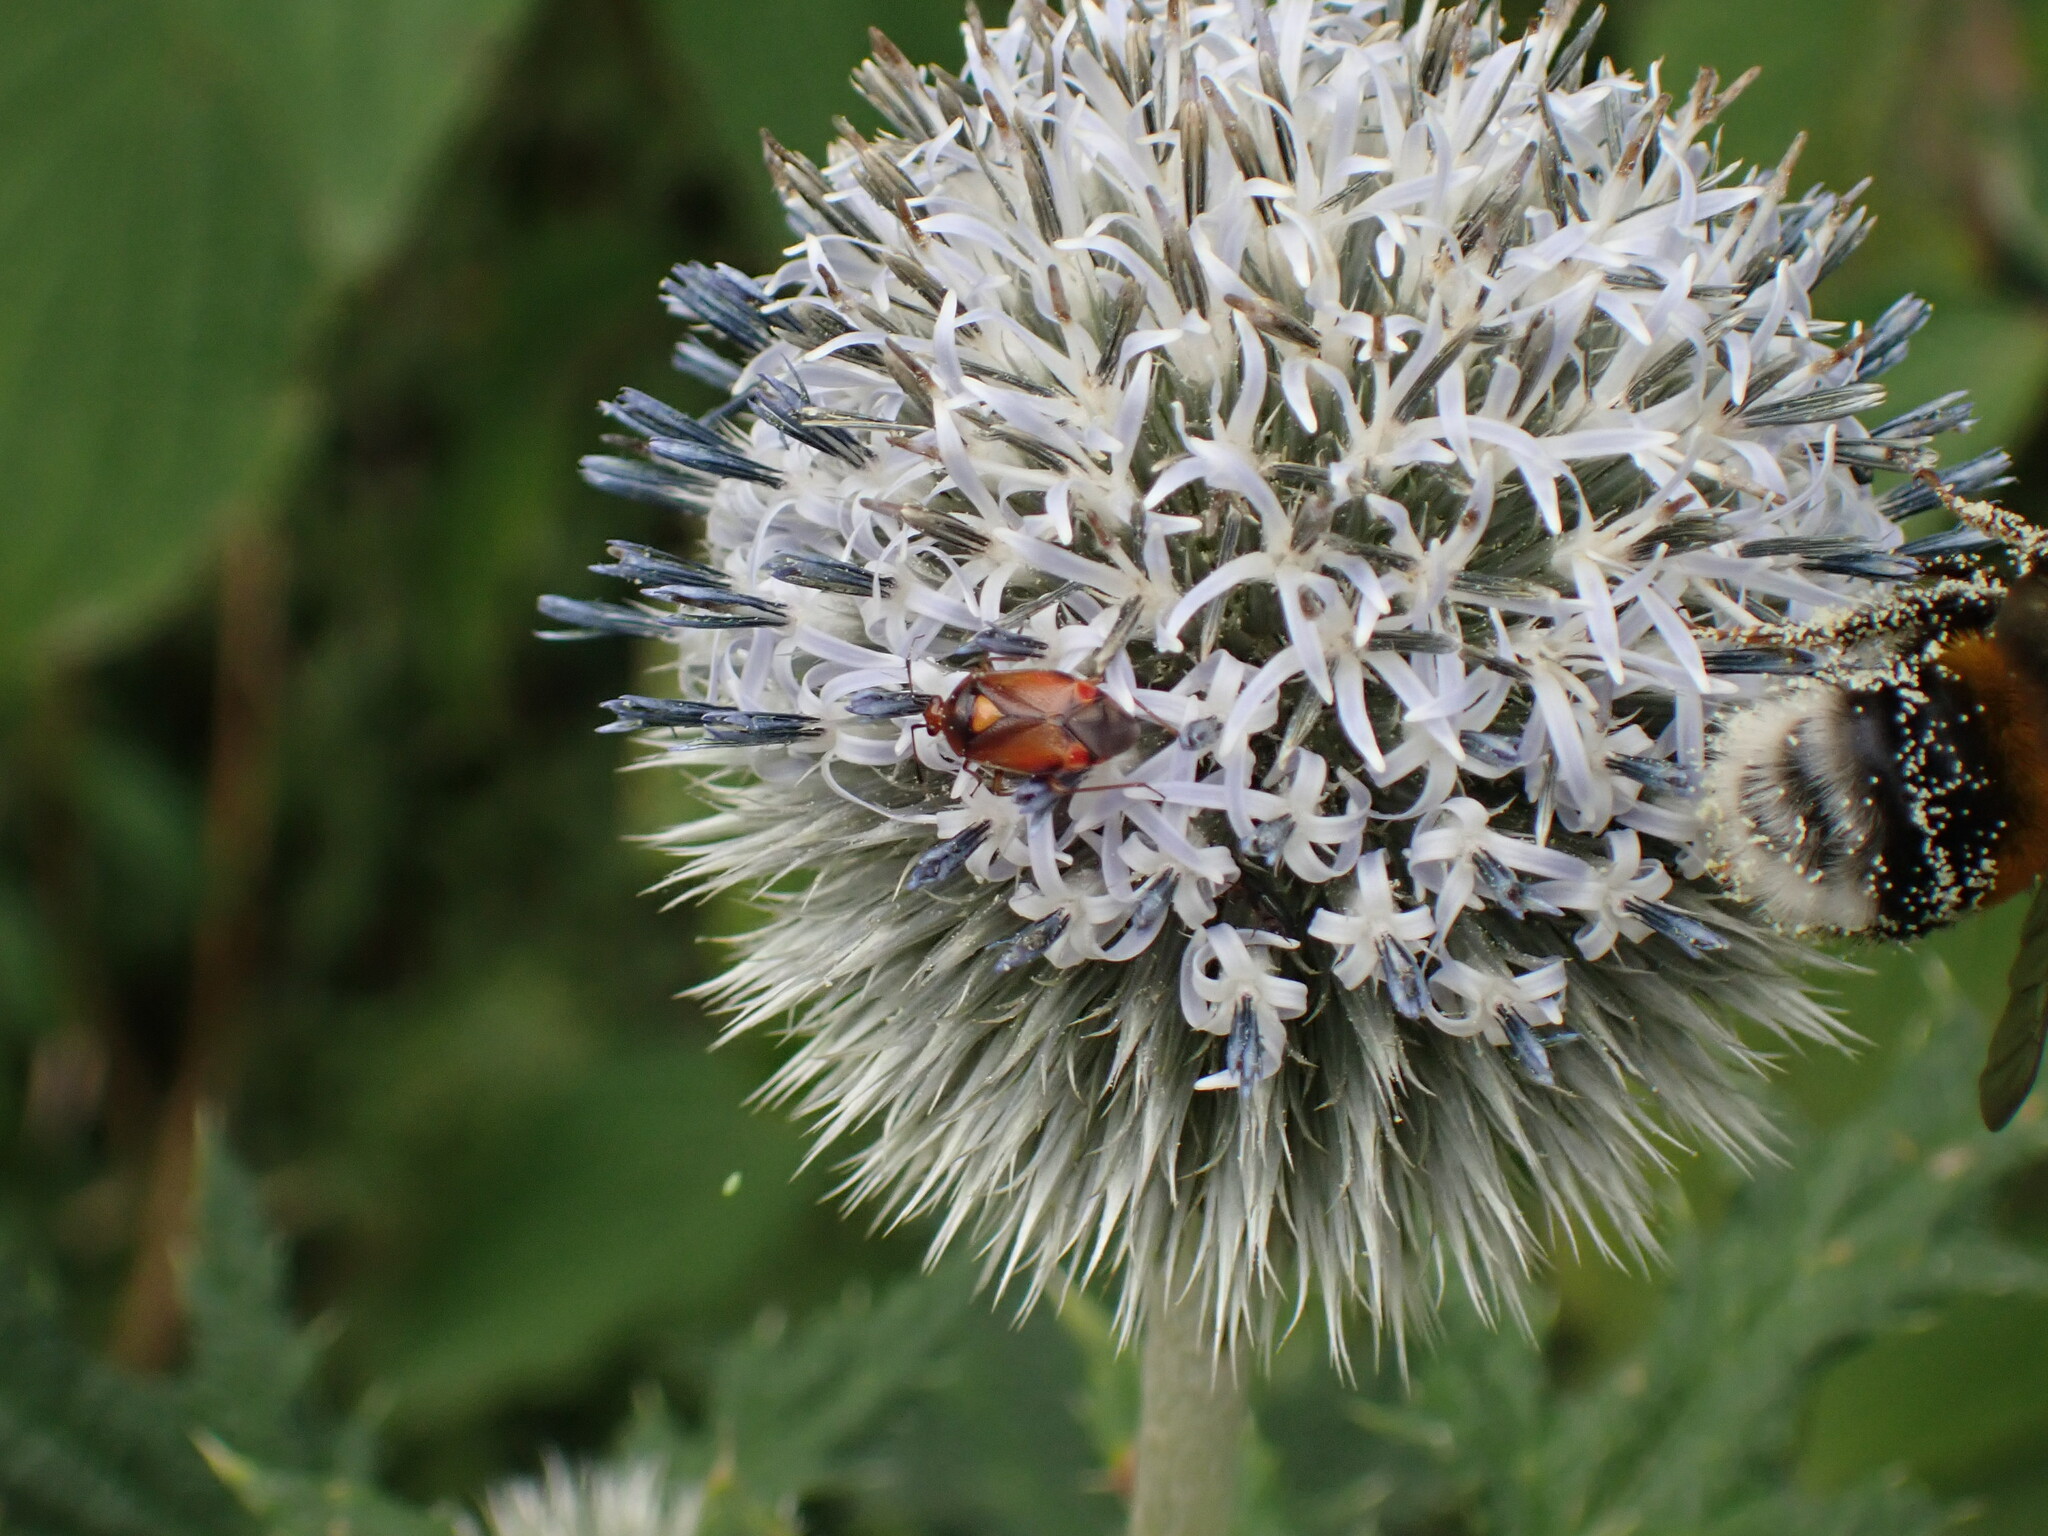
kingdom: Animalia
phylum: Arthropoda
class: Insecta
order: Hemiptera
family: Miridae
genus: Deraeocoris
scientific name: Deraeocoris ruber
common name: Plant bug
